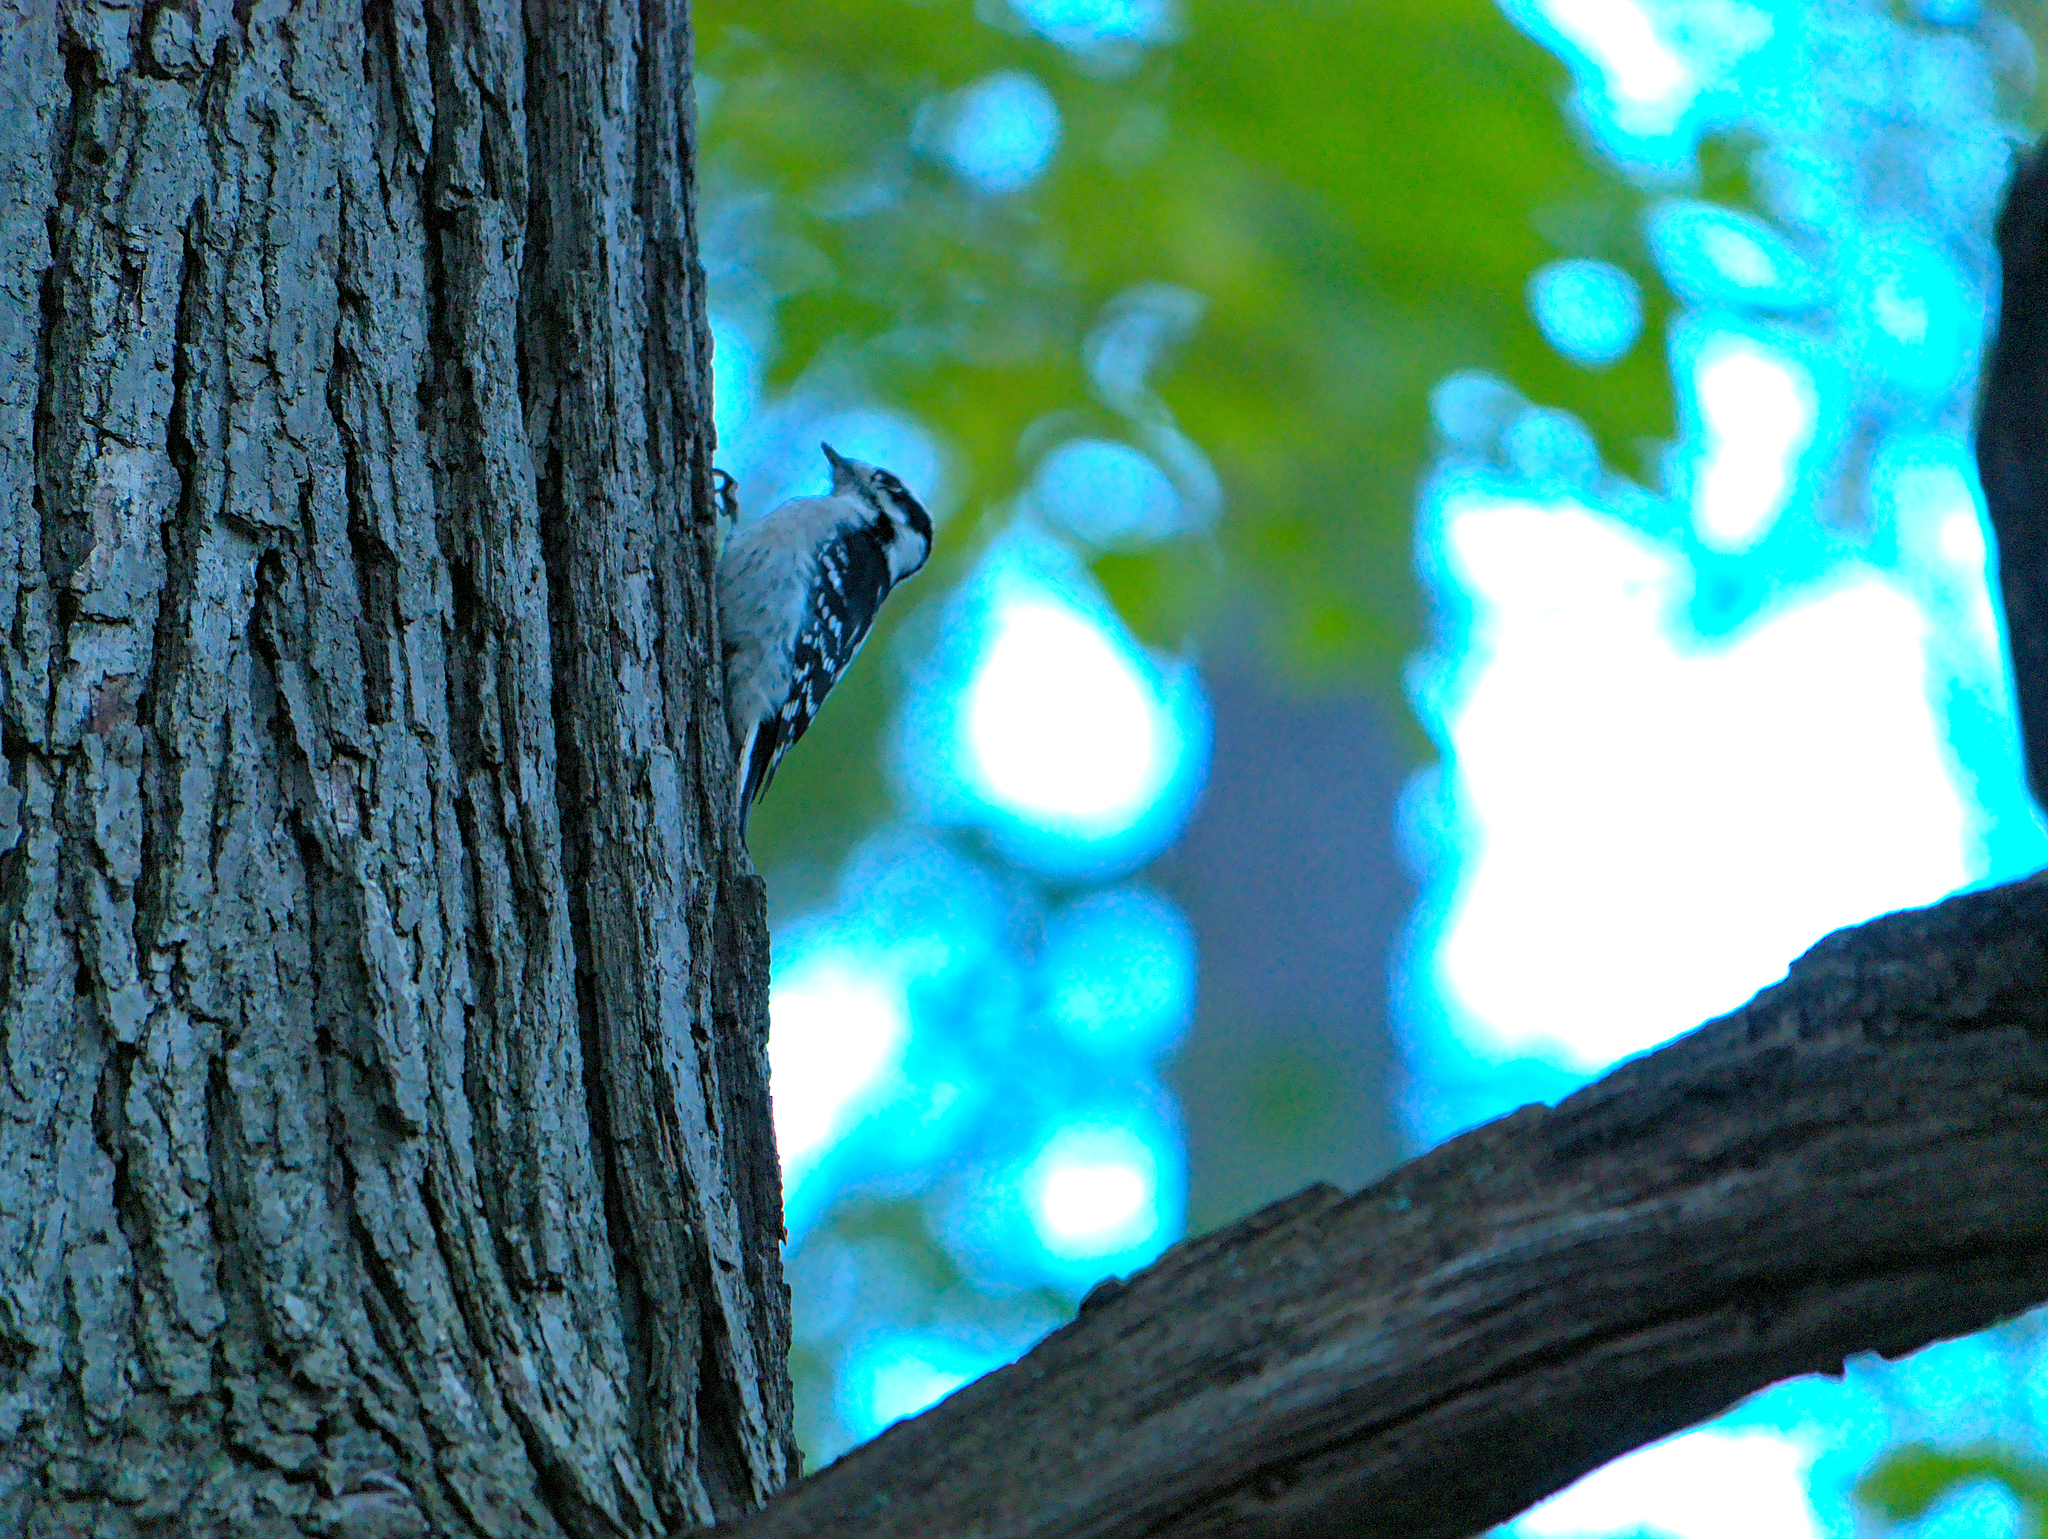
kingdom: Animalia
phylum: Chordata
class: Aves
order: Piciformes
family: Picidae
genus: Dryobates
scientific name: Dryobates pubescens
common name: Downy woodpecker
